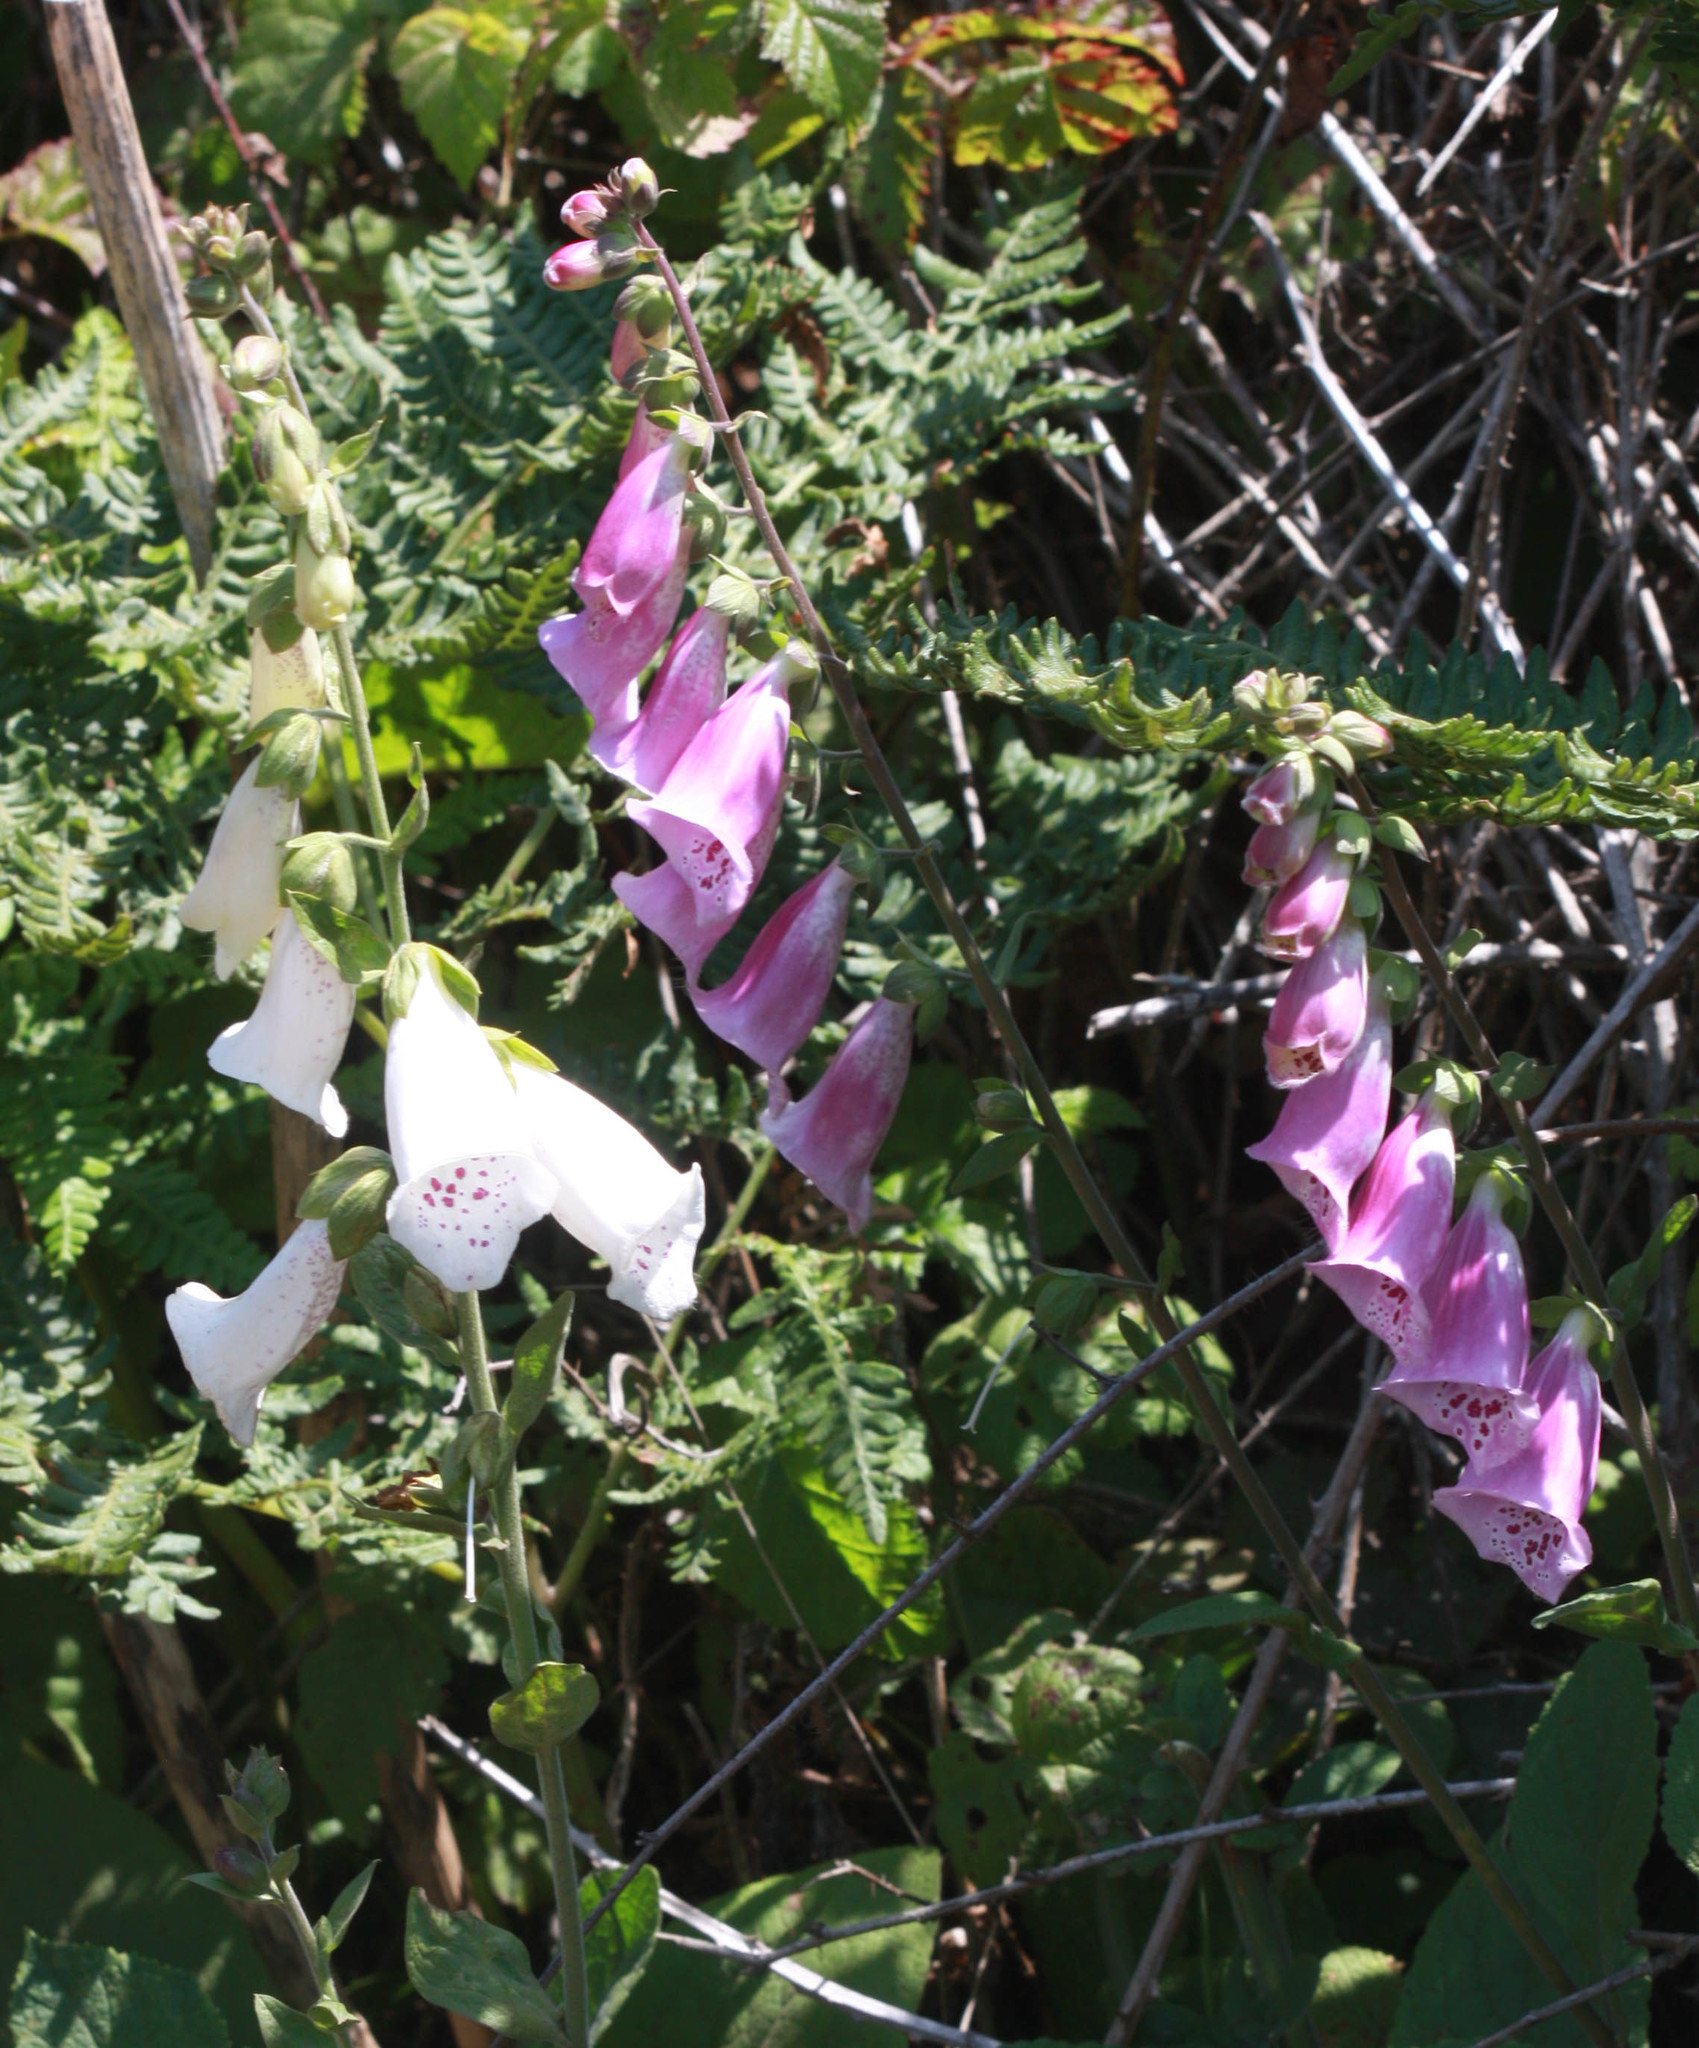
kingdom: Plantae
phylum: Tracheophyta
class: Magnoliopsida
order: Lamiales
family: Plantaginaceae
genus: Digitalis
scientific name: Digitalis purpurea
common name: Foxglove
